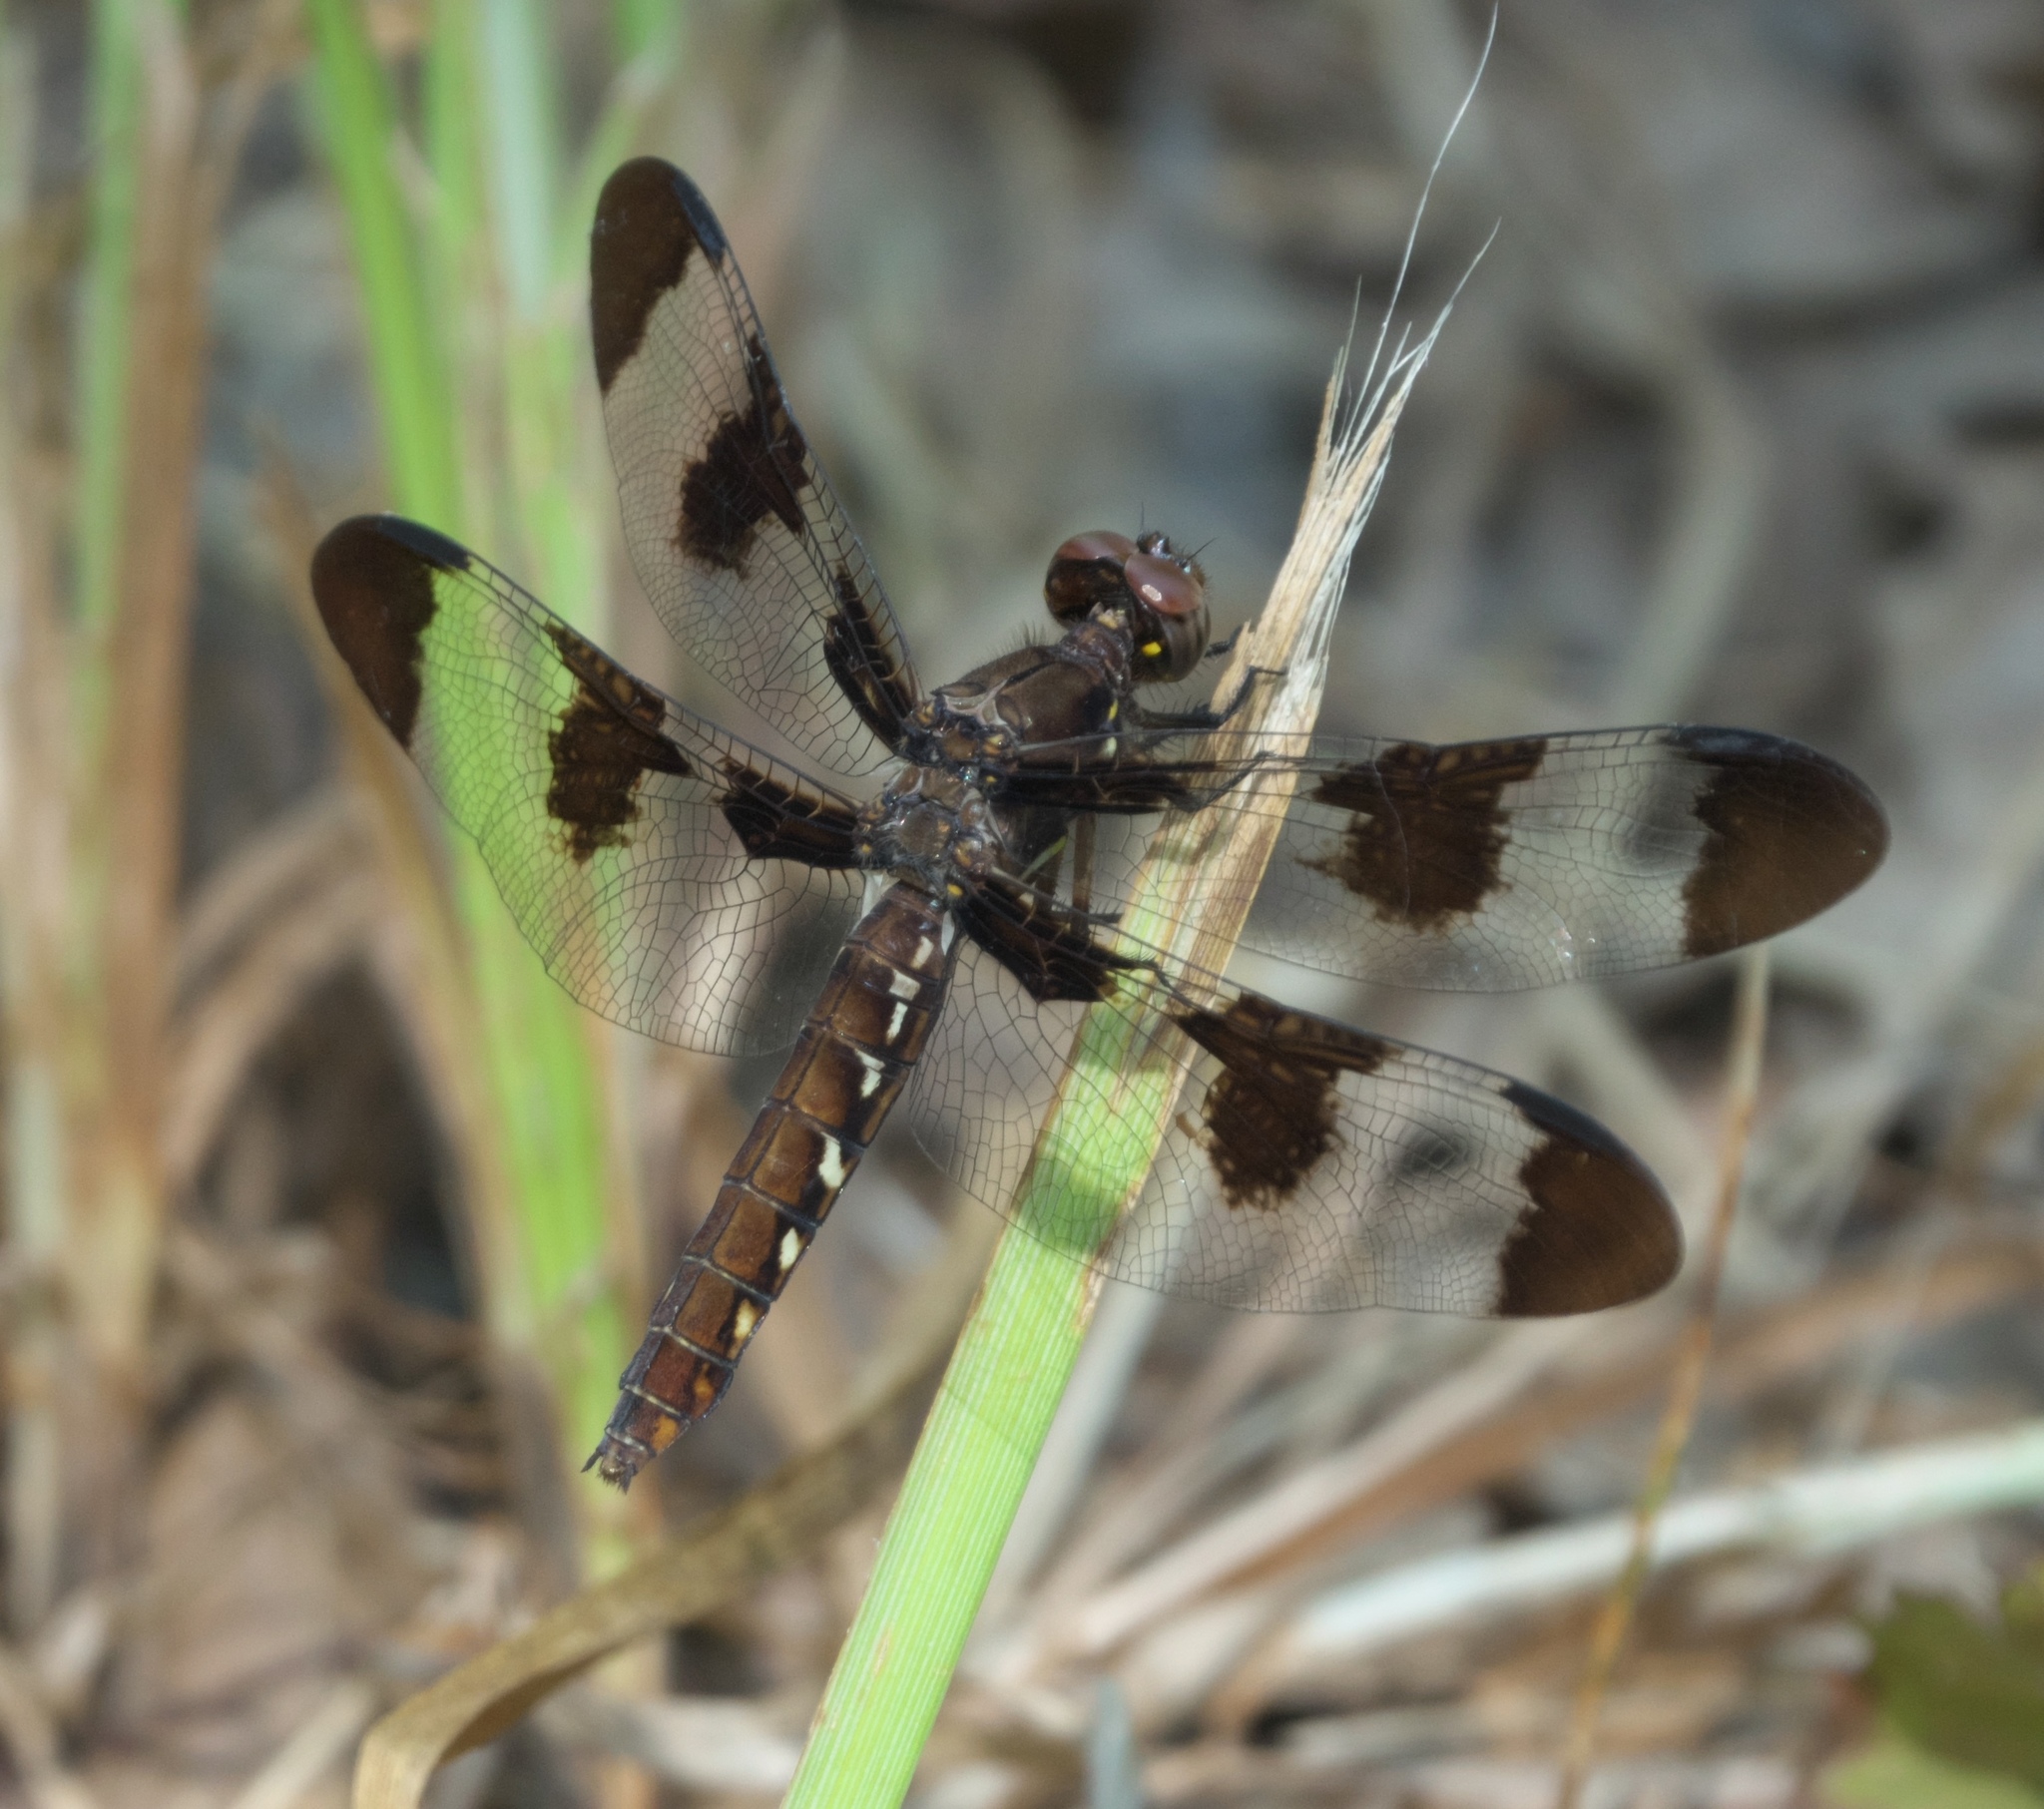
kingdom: Animalia
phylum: Arthropoda
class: Insecta
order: Odonata
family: Libellulidae
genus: Plathemis
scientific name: Plathemis lydia
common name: Common whitetail
